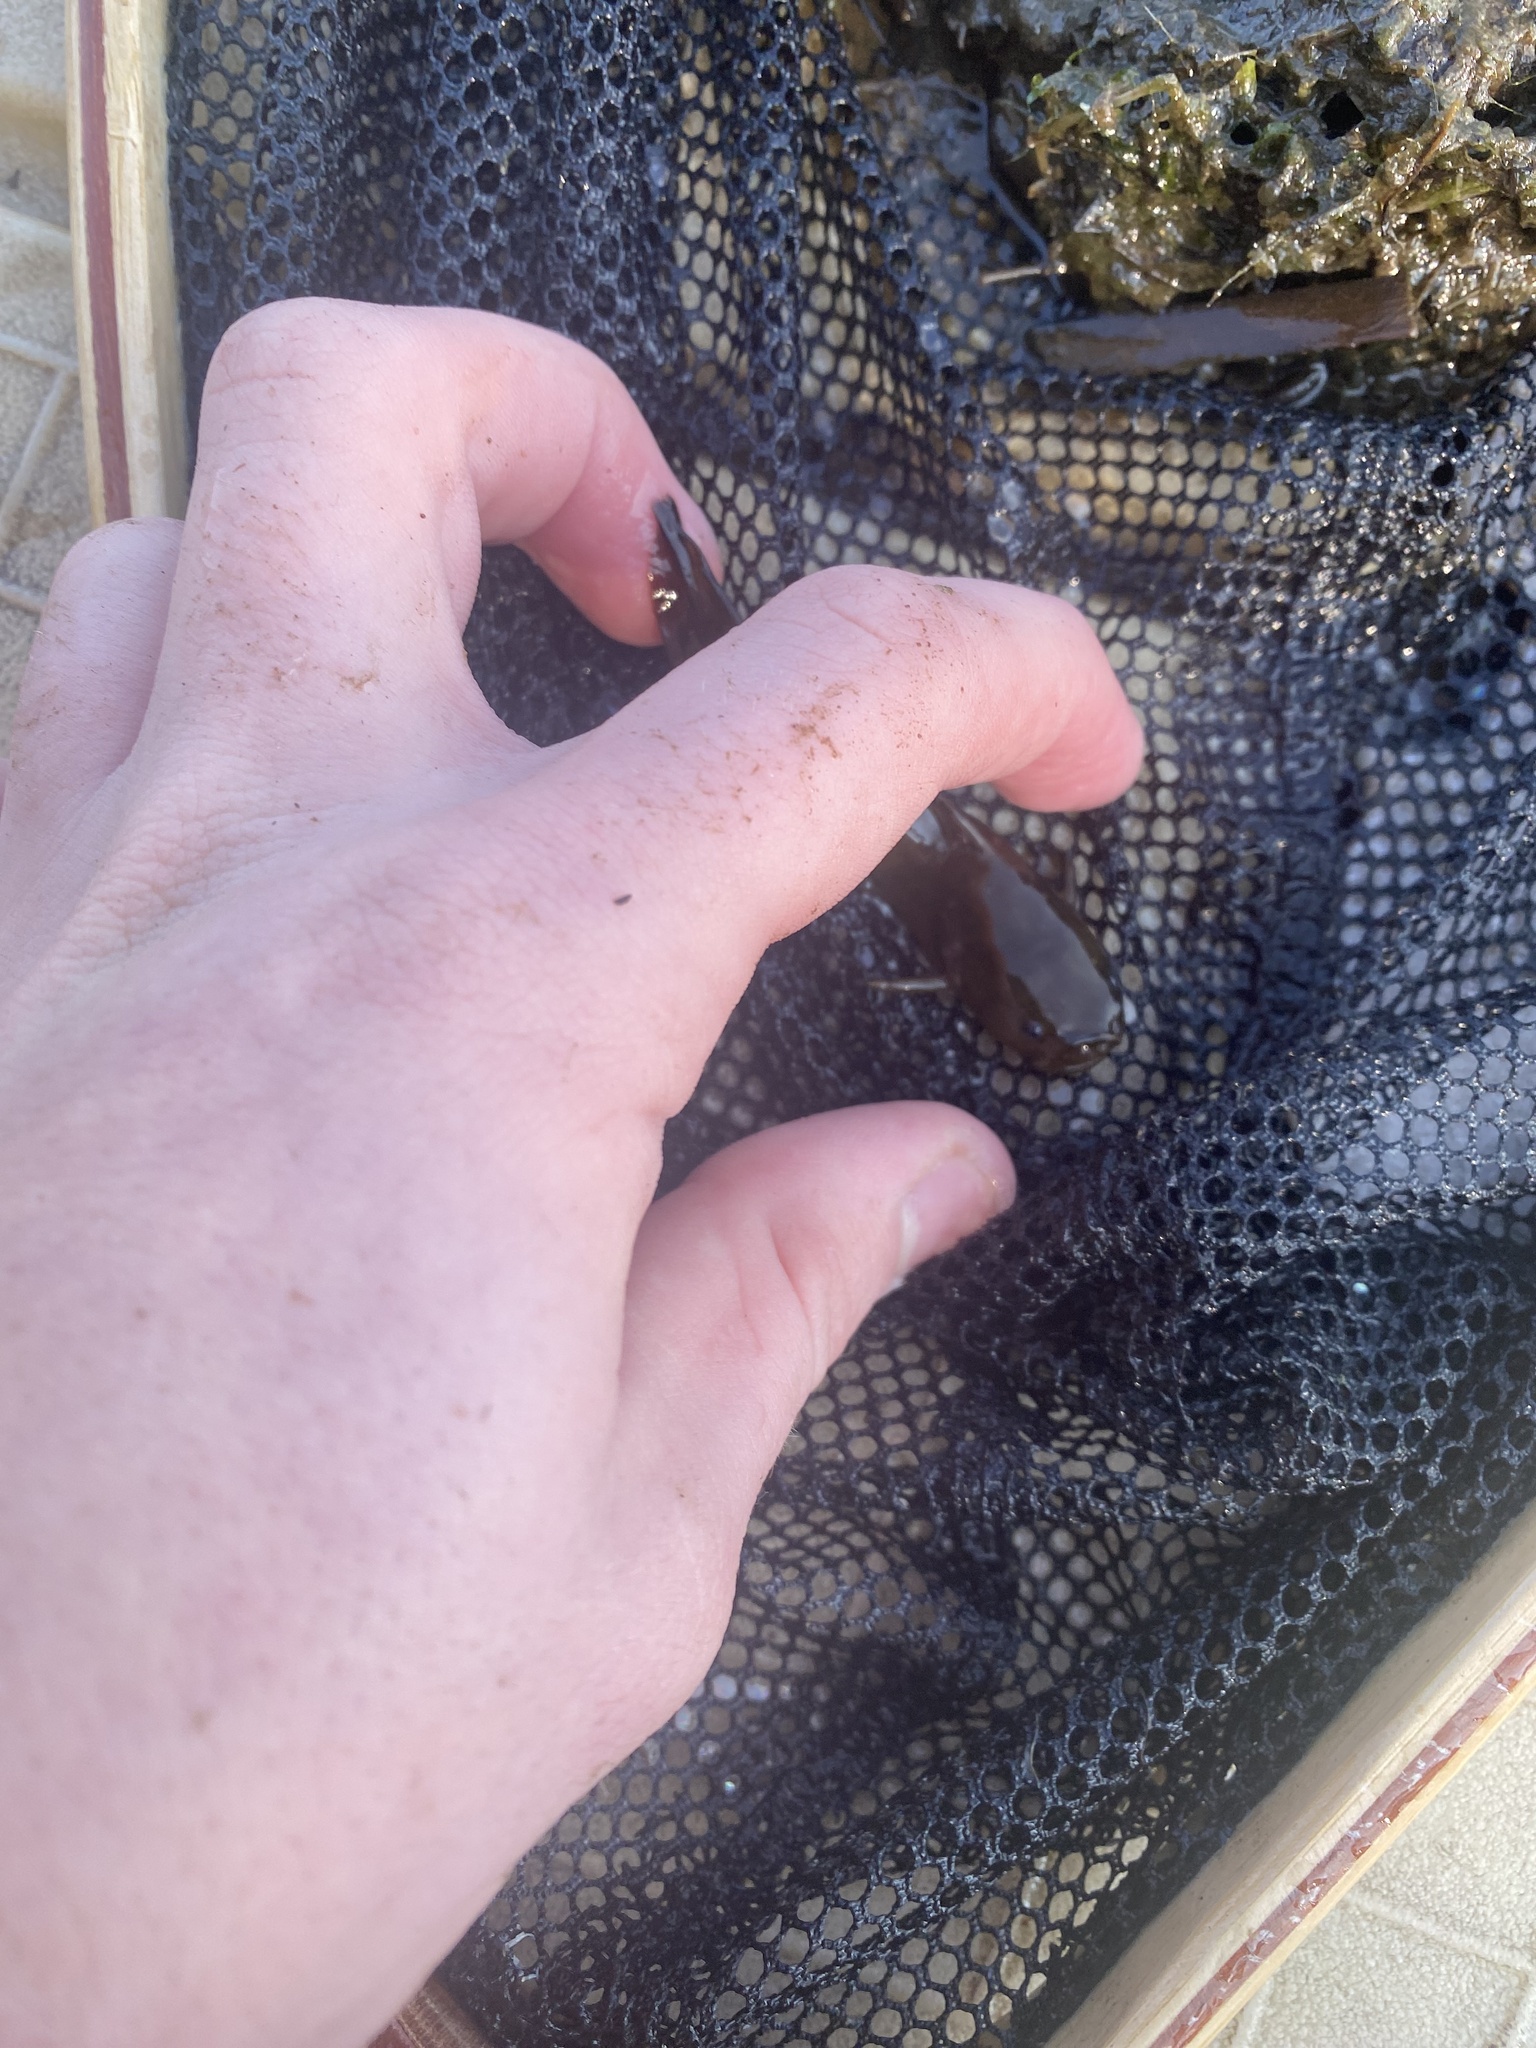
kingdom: Animalia
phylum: Chordata
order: Siluriformes
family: Ictaluridae
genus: Noturus
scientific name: Noturus gyrinus
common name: Tadpole madtom
